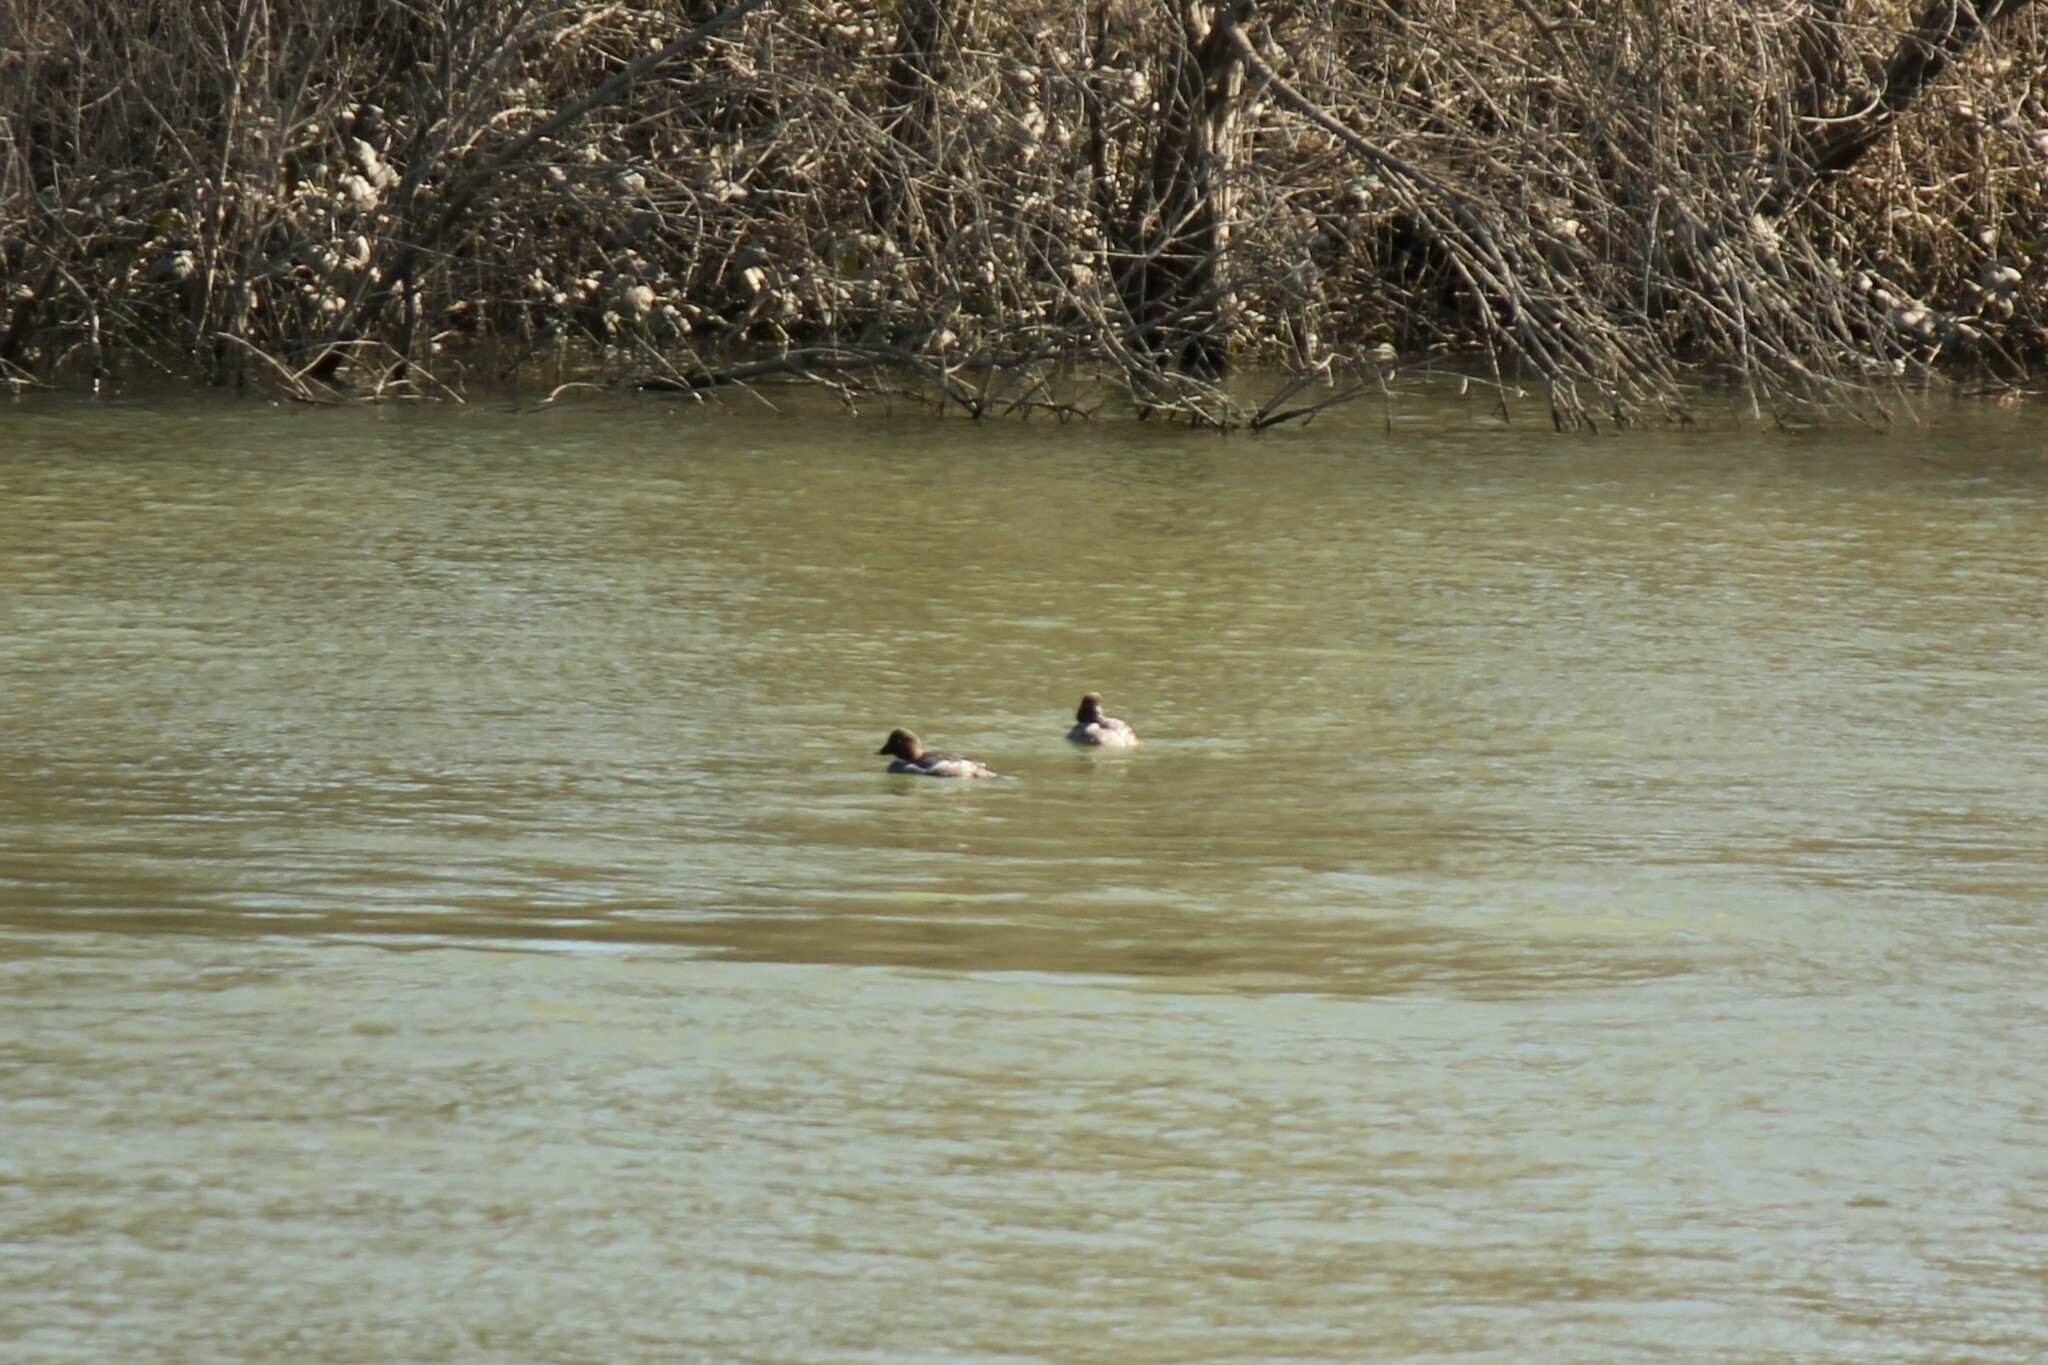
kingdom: Animalia
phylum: Chordata
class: Aves
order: Anseriformes
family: Anatidae
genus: Bucephala
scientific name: Bucephala clangula
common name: Common goldeneye
